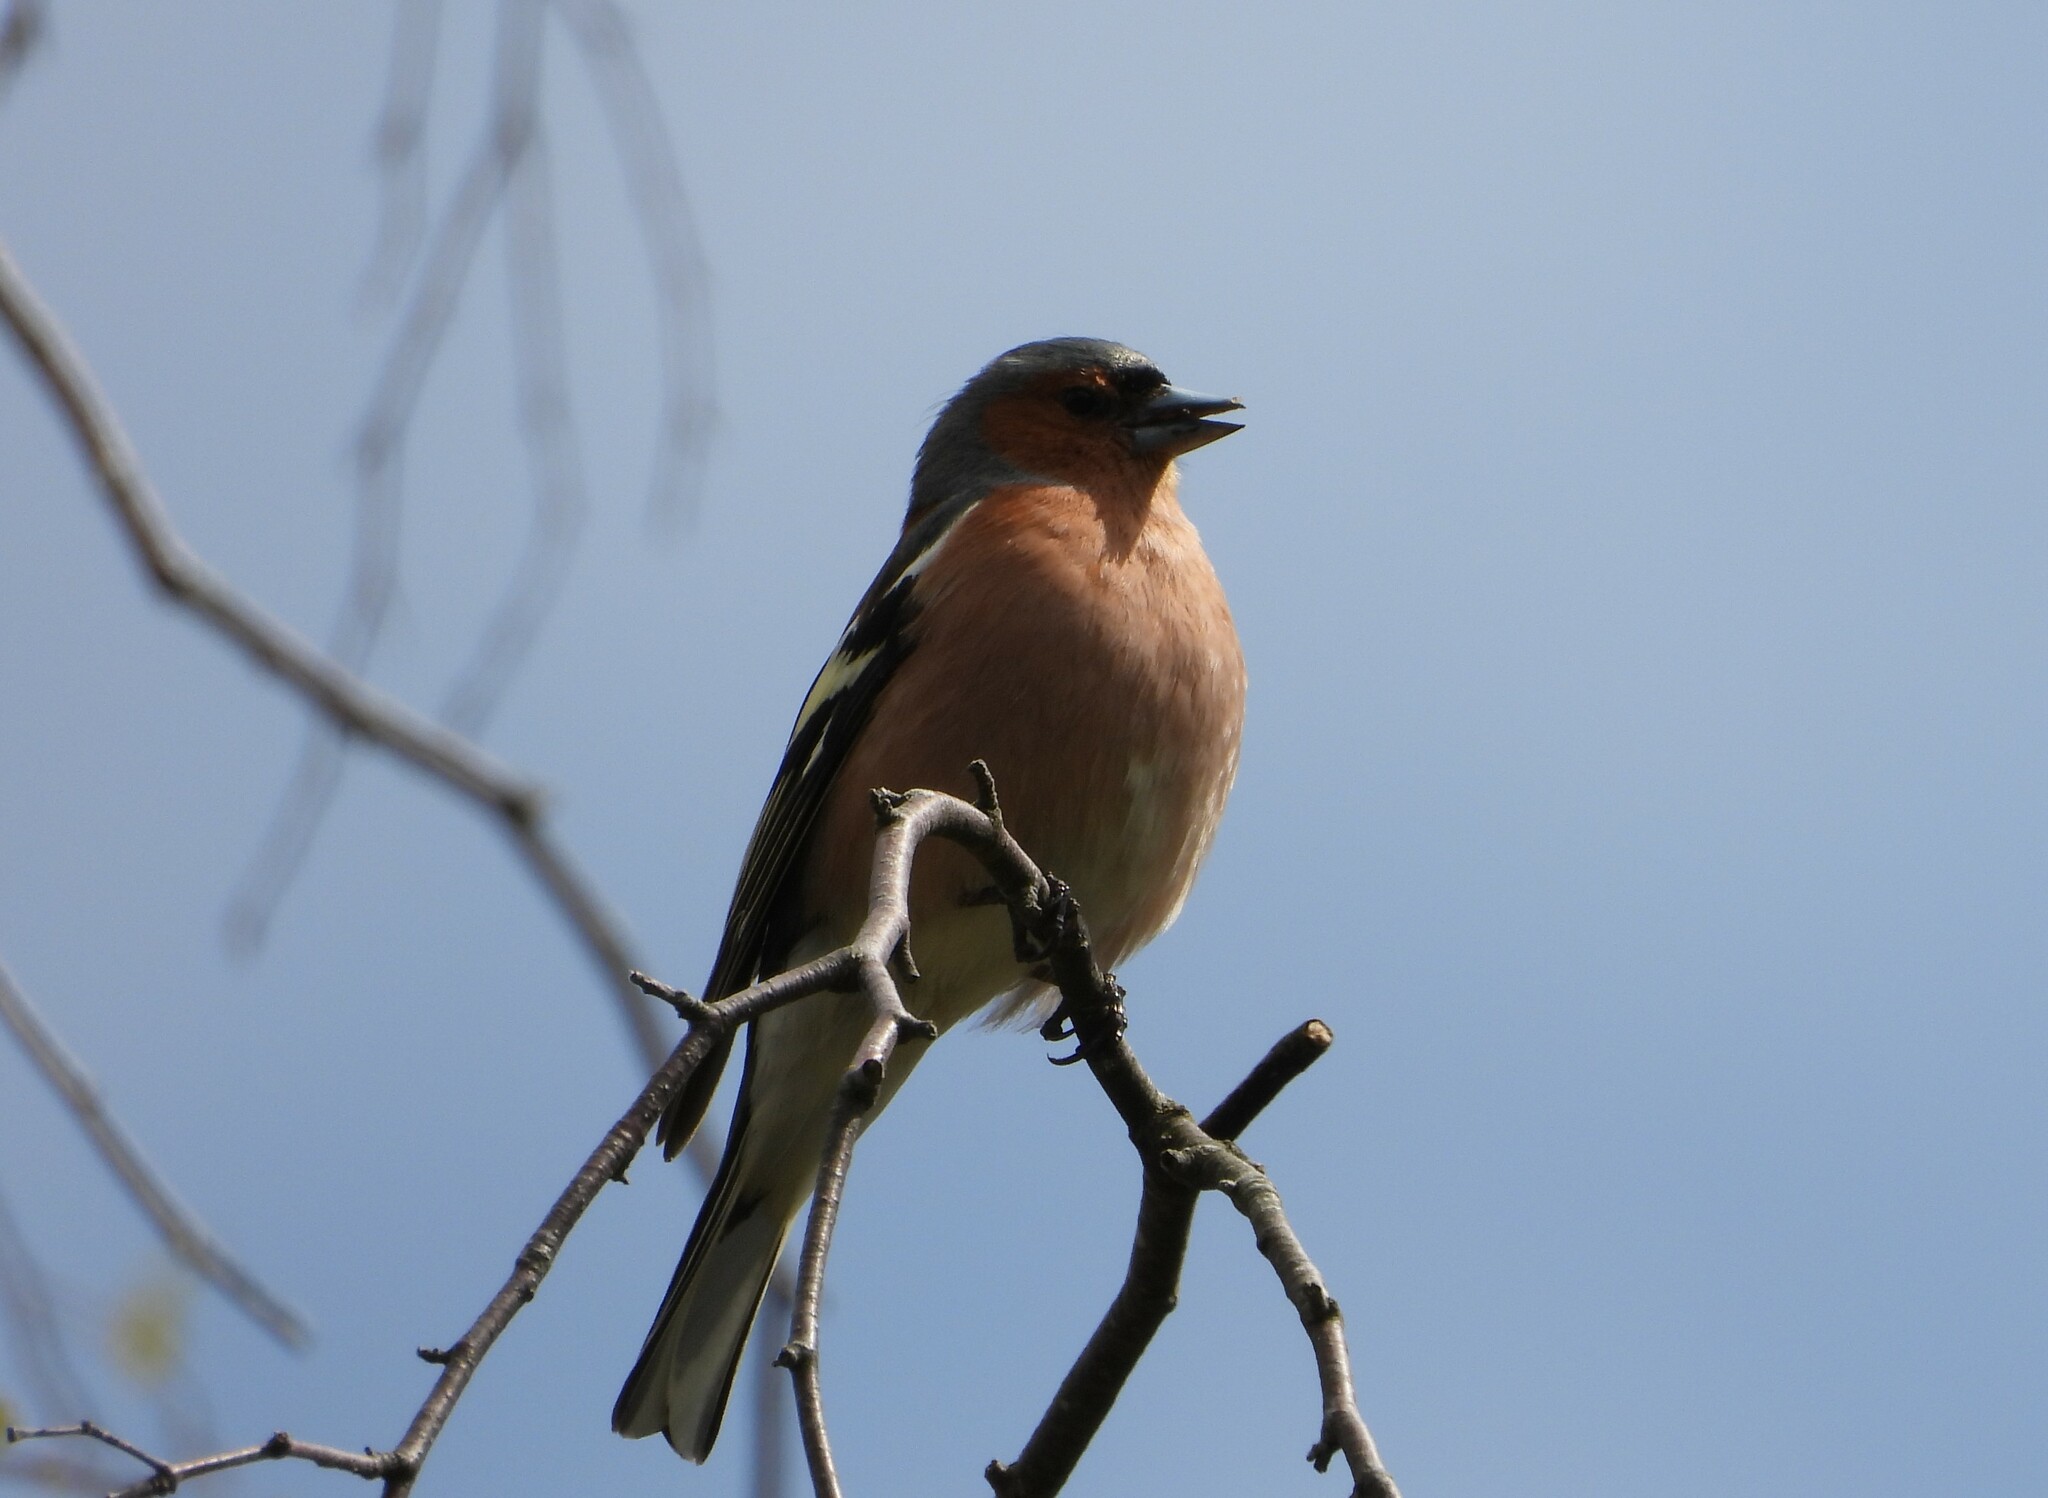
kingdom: Animalia
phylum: Chordata
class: Aves
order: Passeriformes
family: Fringillidae
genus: Fringilla
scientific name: Fringilla coelebs
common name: Common chaffinch
